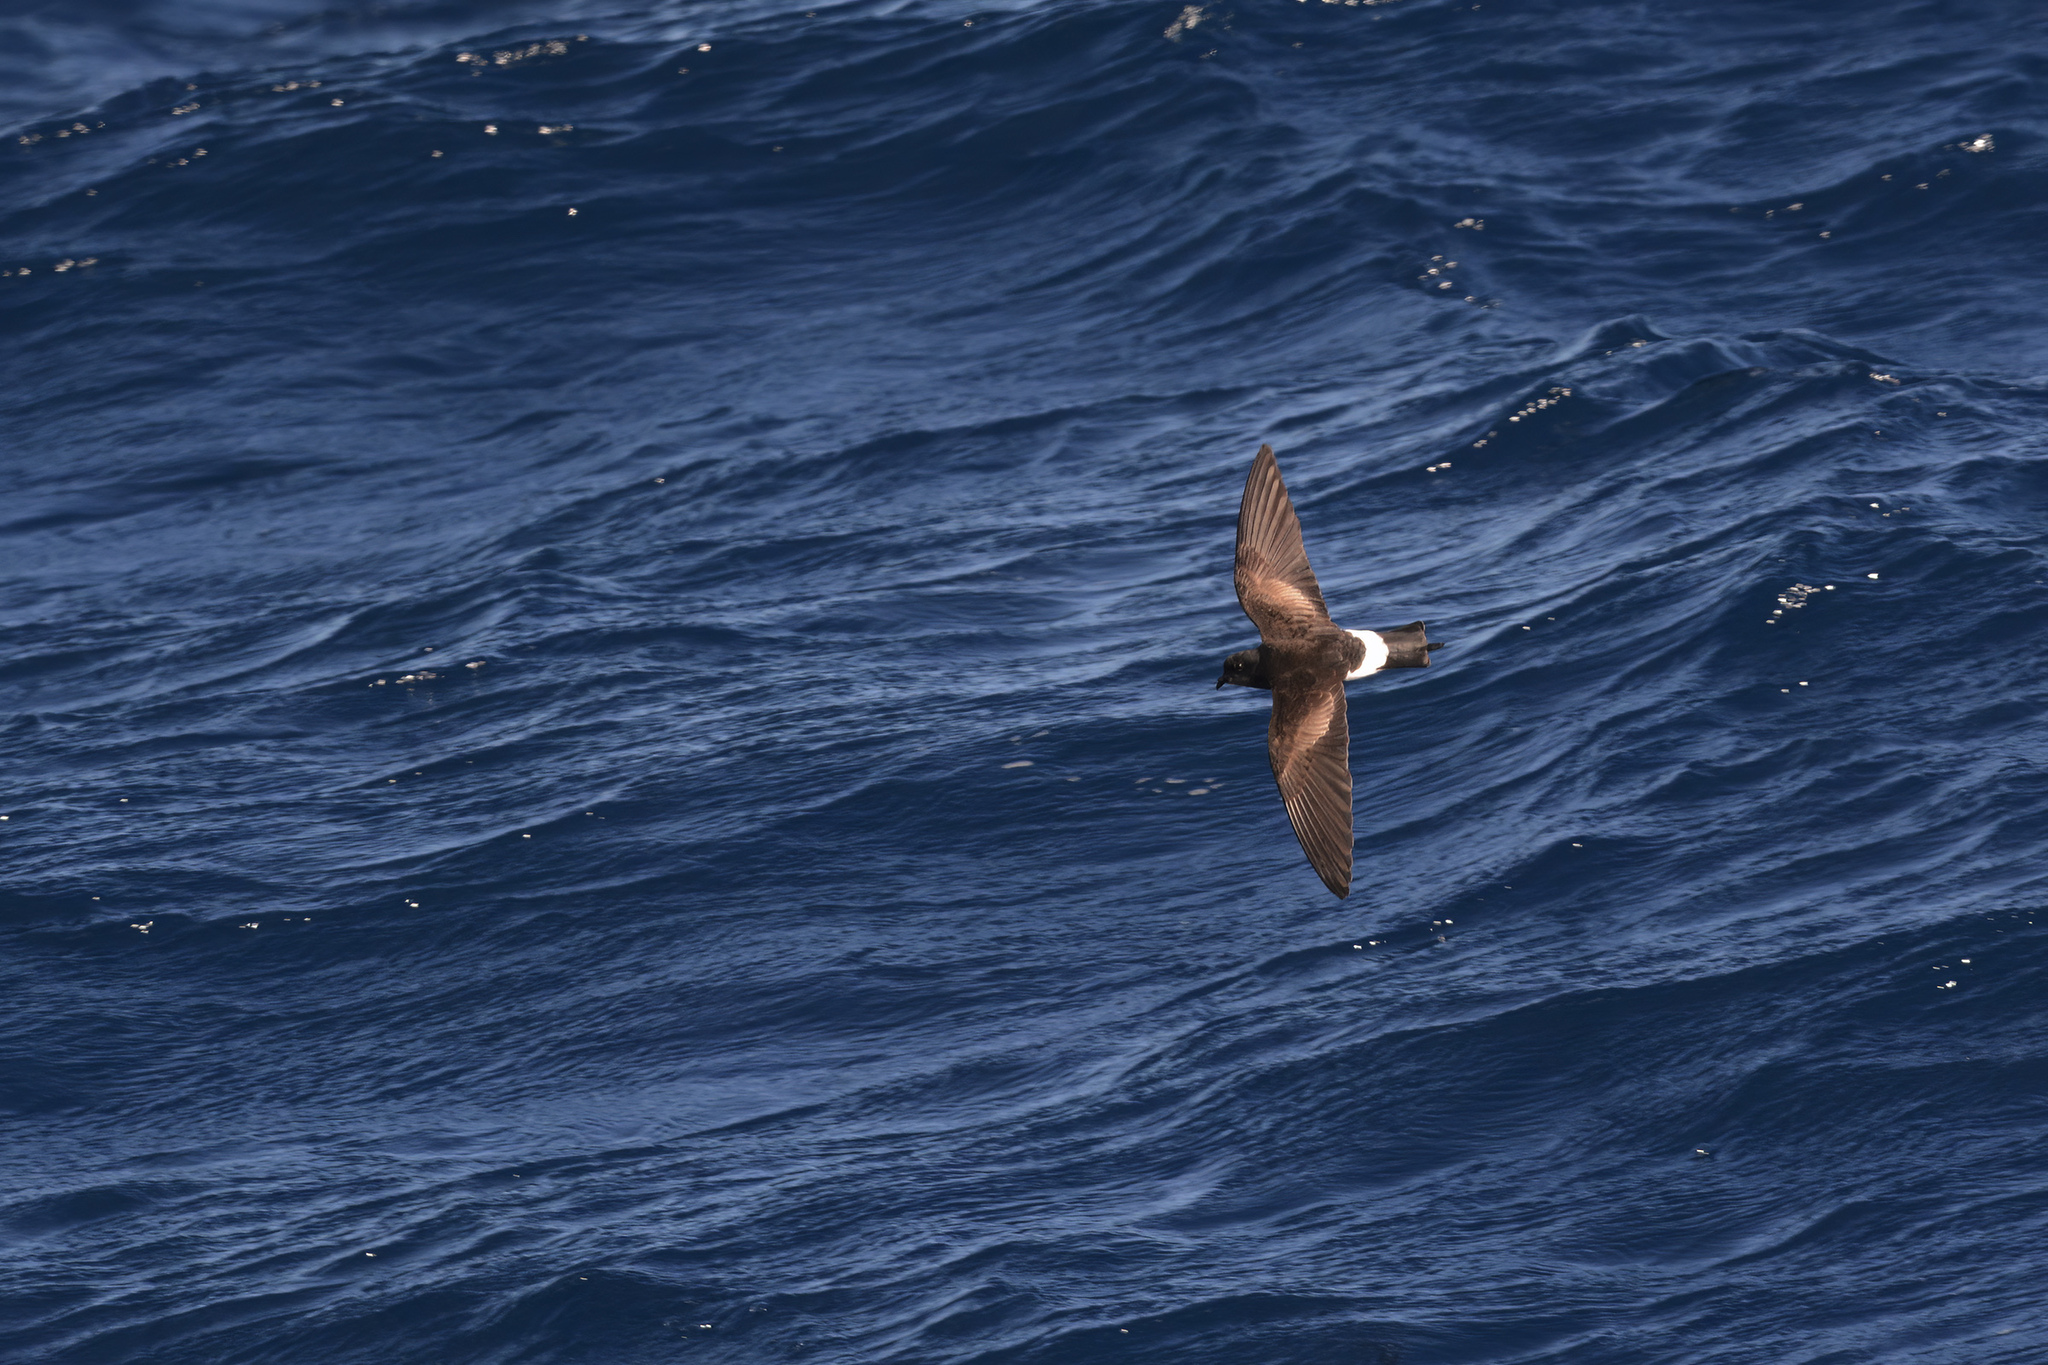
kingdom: Animalia
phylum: Chordata
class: Aves
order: Procellariiformes
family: Hydrobatidae
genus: Oceanites
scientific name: Oceanites oceanicus
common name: Wilson's storm petrel
